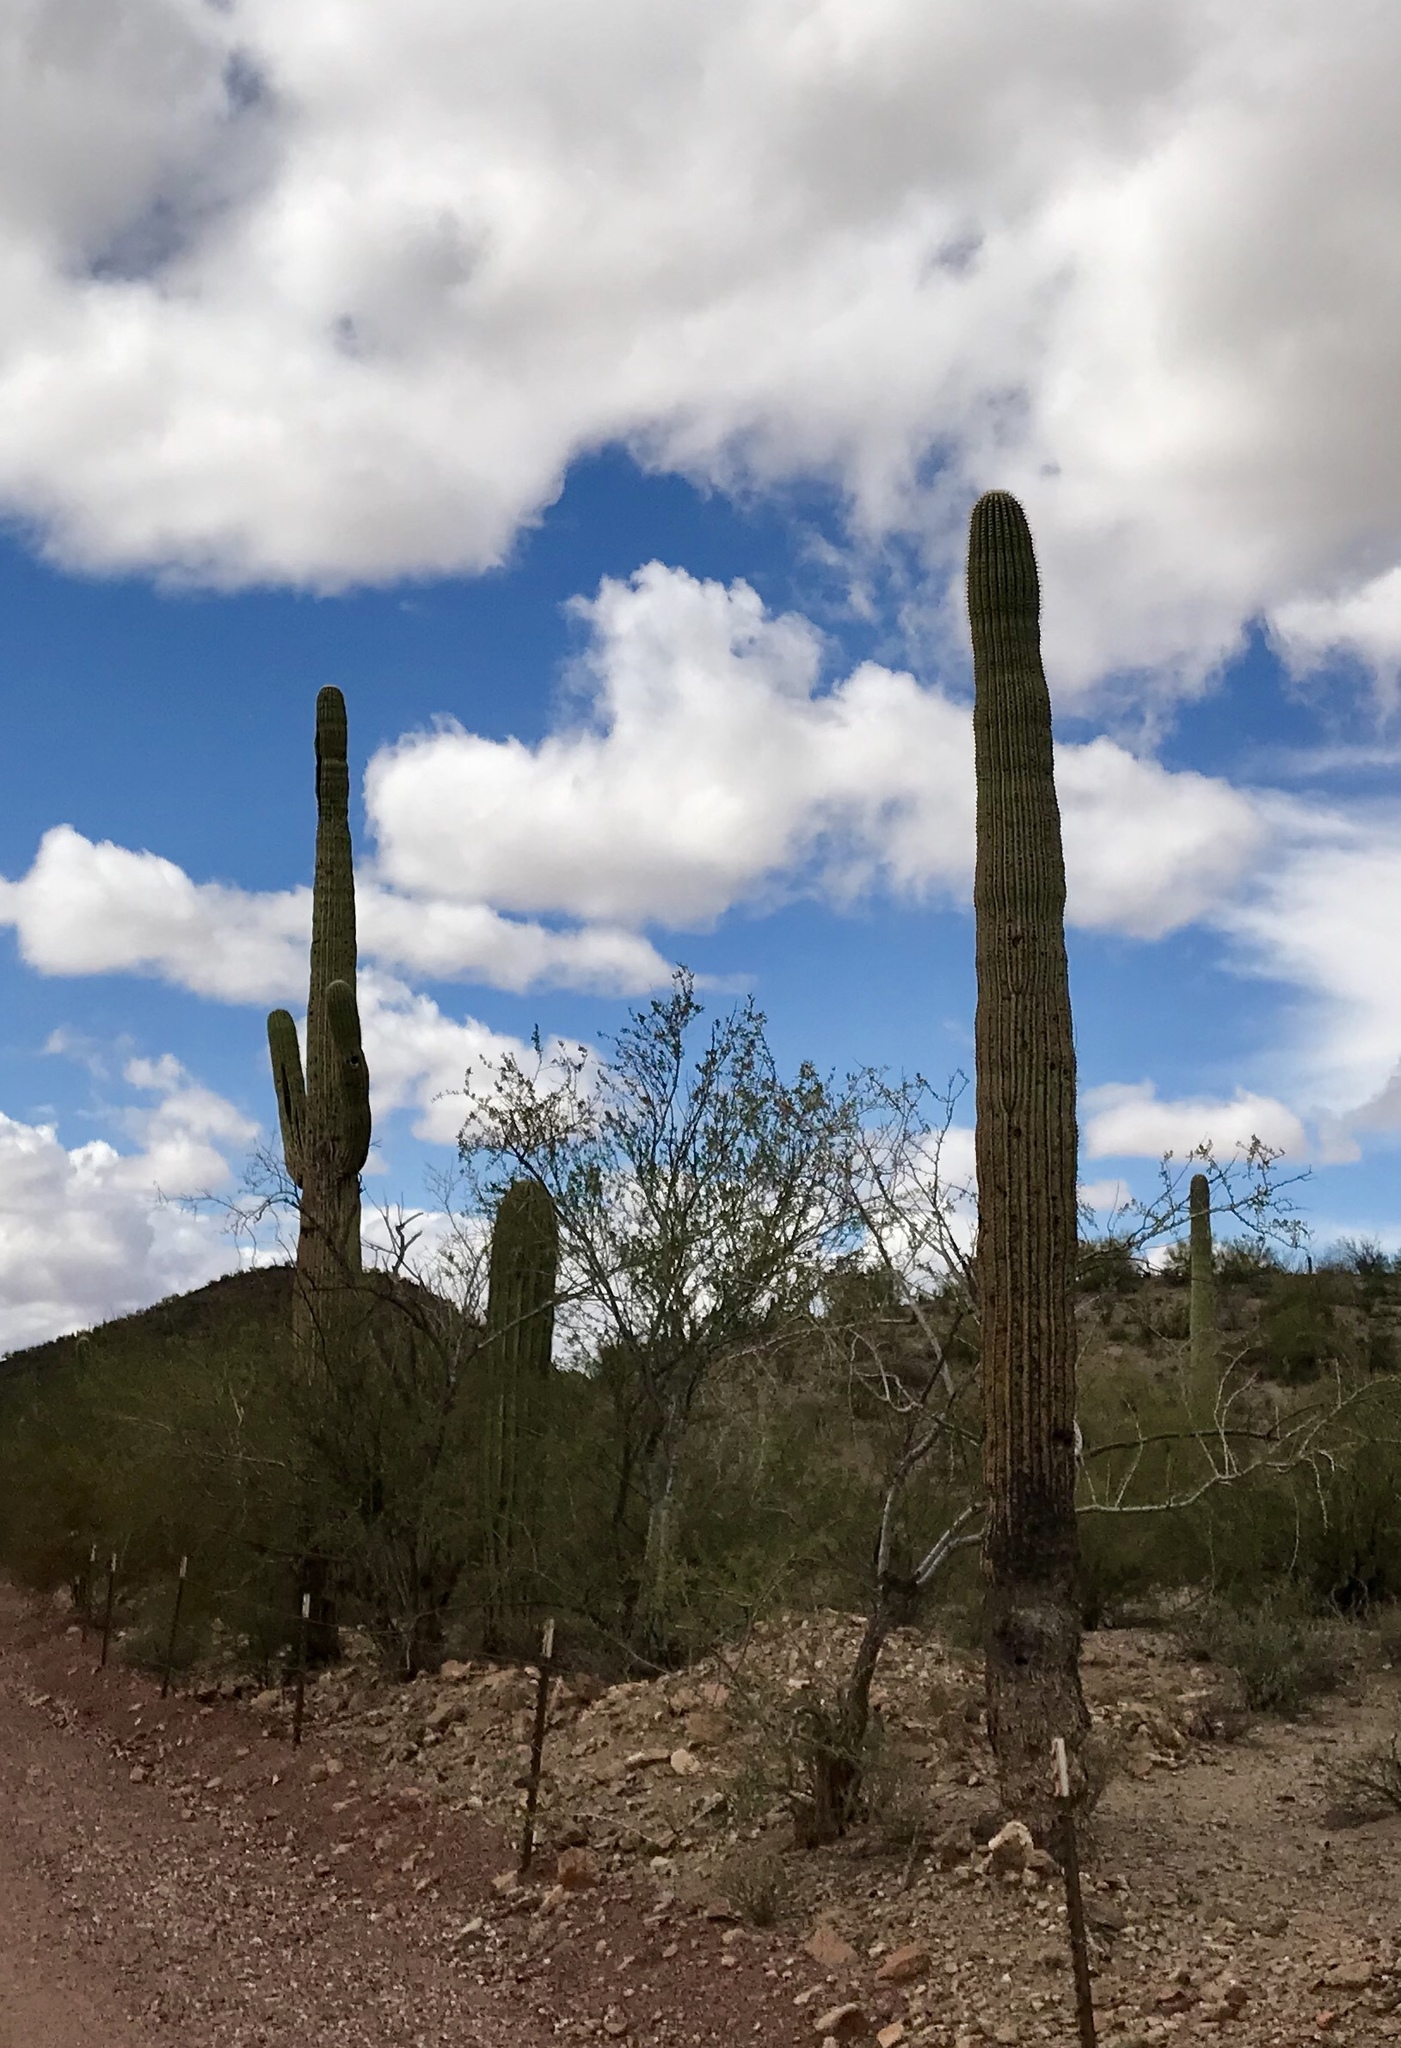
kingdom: Plantae
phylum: Tracheophyta
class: Magnoliopsida
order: Caryophyllales
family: Cactaceae
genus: Carnegiea
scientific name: Carnegiea gigantea
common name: Saguaro
